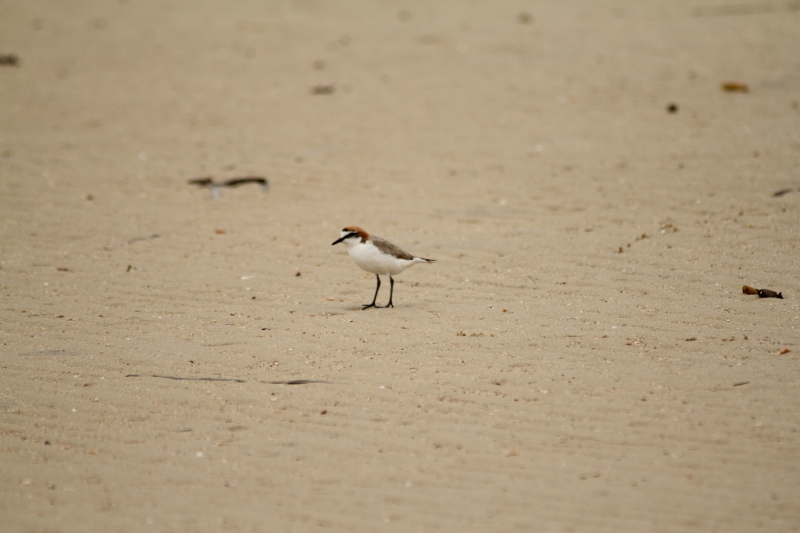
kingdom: Animalia
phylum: Chordata
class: Aves
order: Charadriiformes
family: Charadriidae
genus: Anarhynchus
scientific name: Anarhynchus
